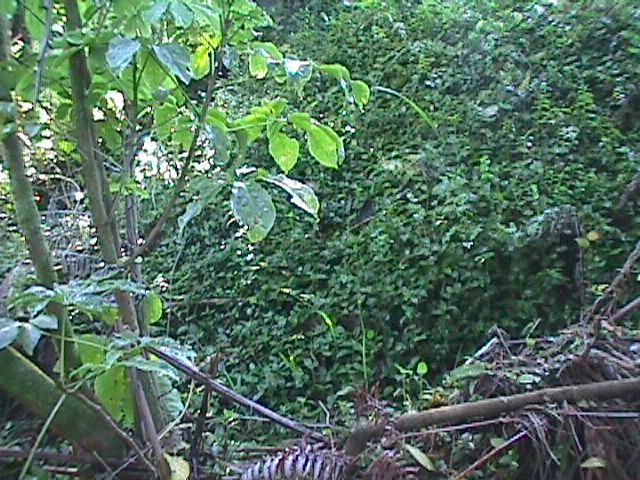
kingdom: Plantae
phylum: Tracheophyta
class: Liliopsida
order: Commelinales
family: Commelinaceae
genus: Tradescantia
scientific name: Tradescantia fluminensis
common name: Wandering-jew
